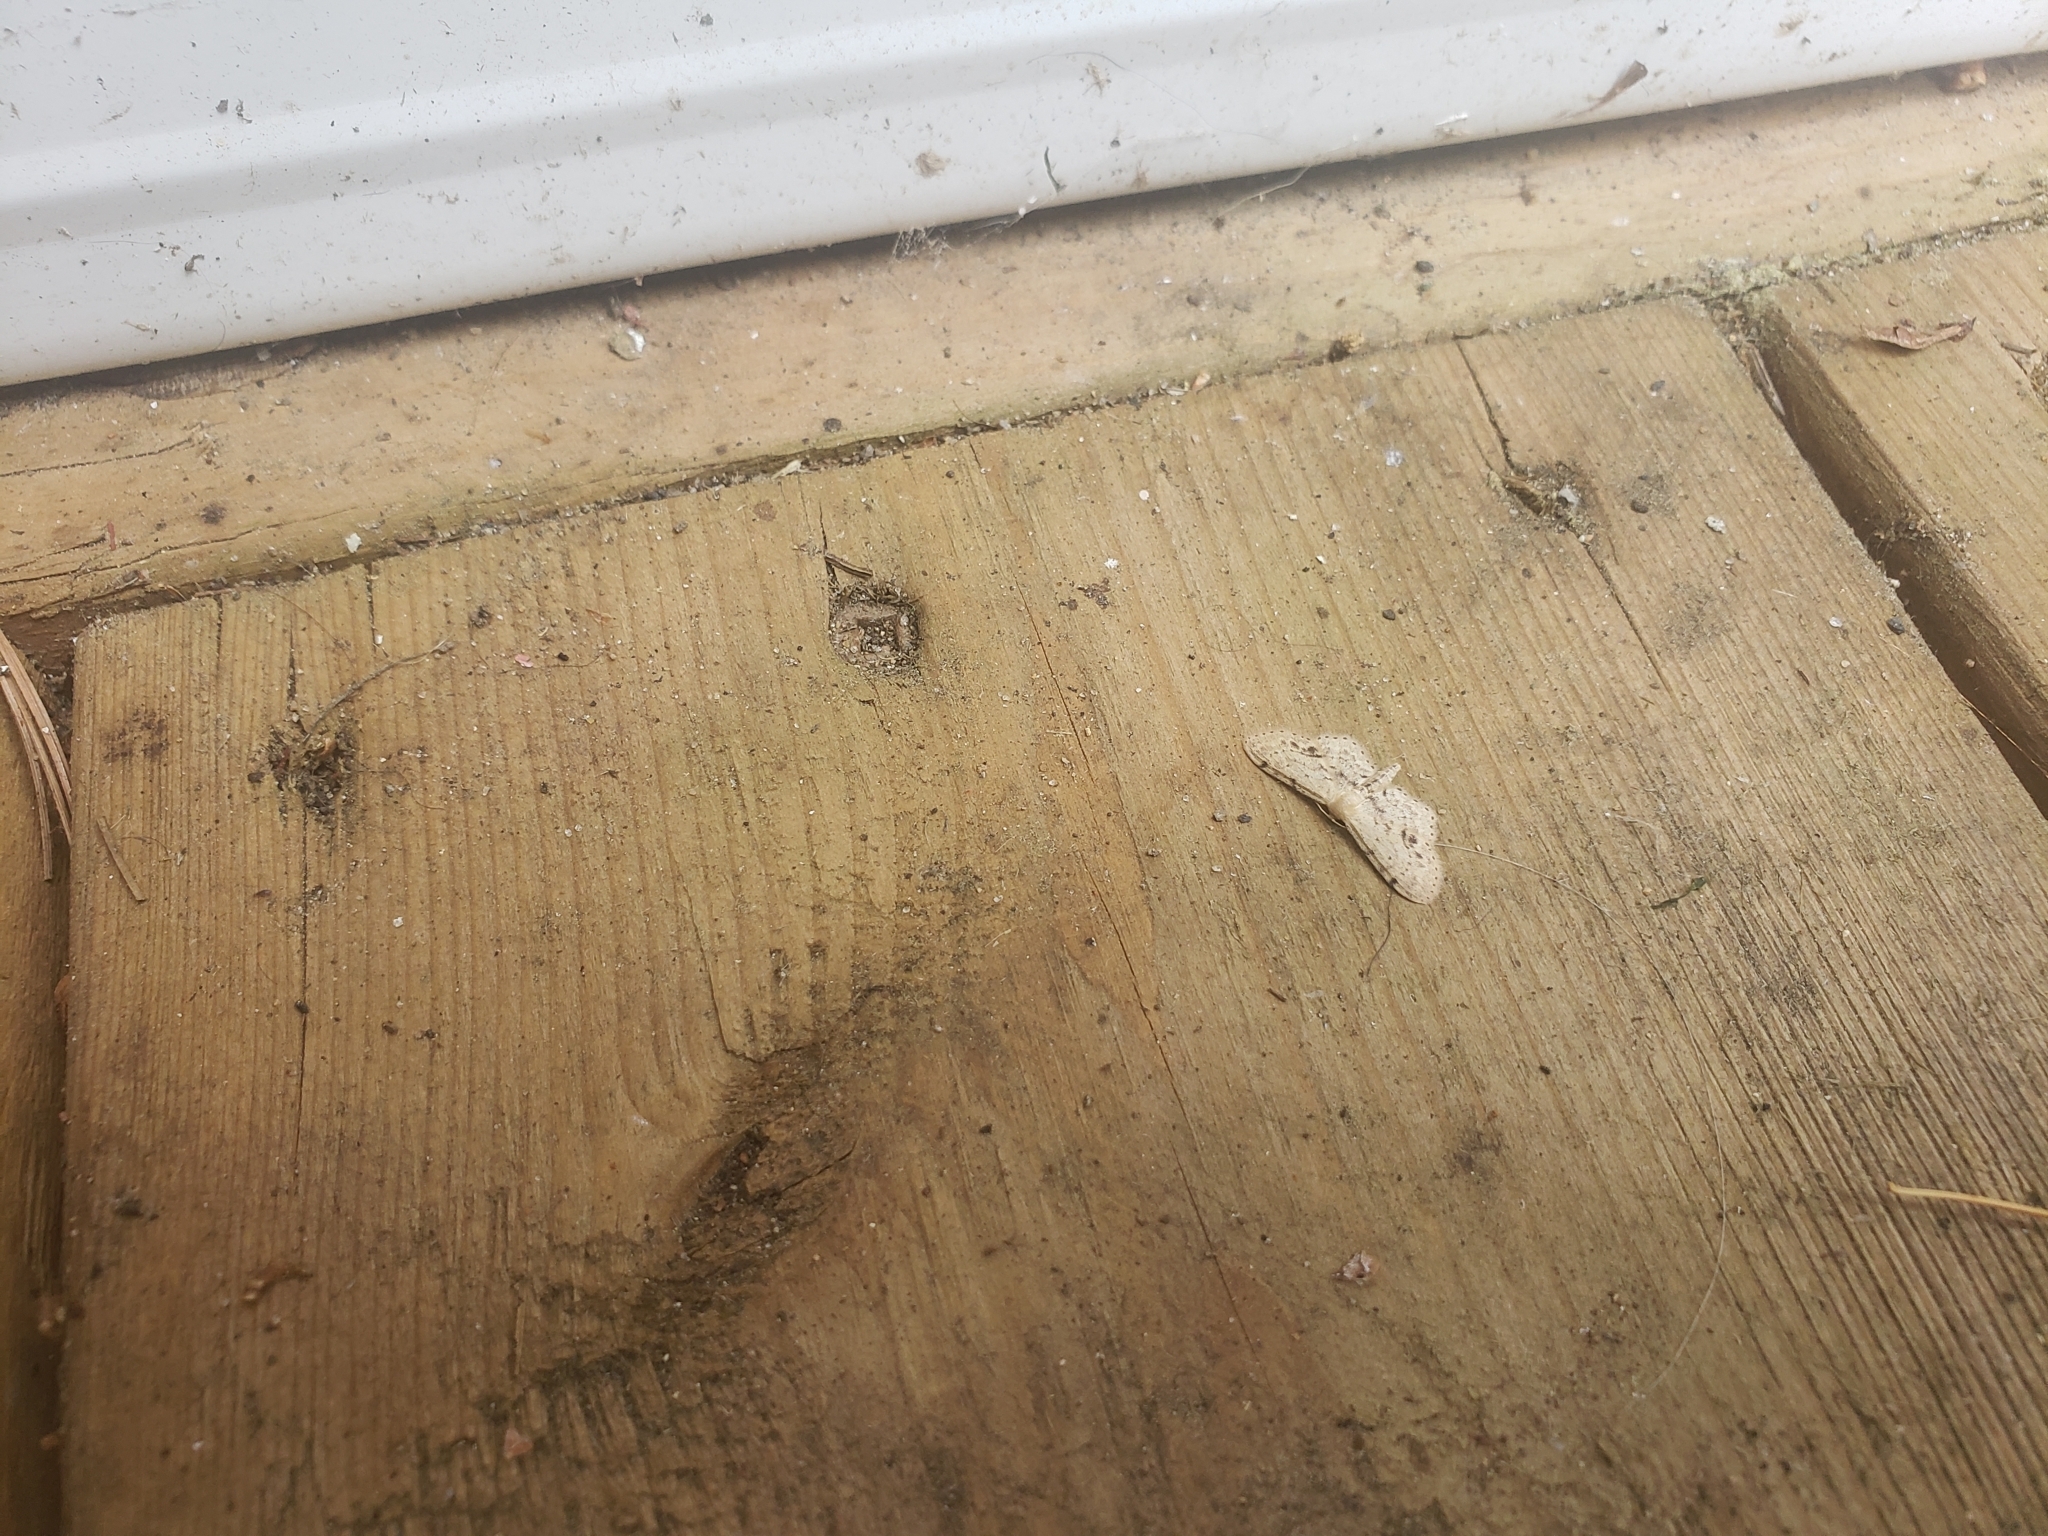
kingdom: Animalia
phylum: Arthropoda
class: Insecta
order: Lepidoptera
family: Geometridae
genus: Idaea
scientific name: Idaea dimidiata
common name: Single-dotted wave
